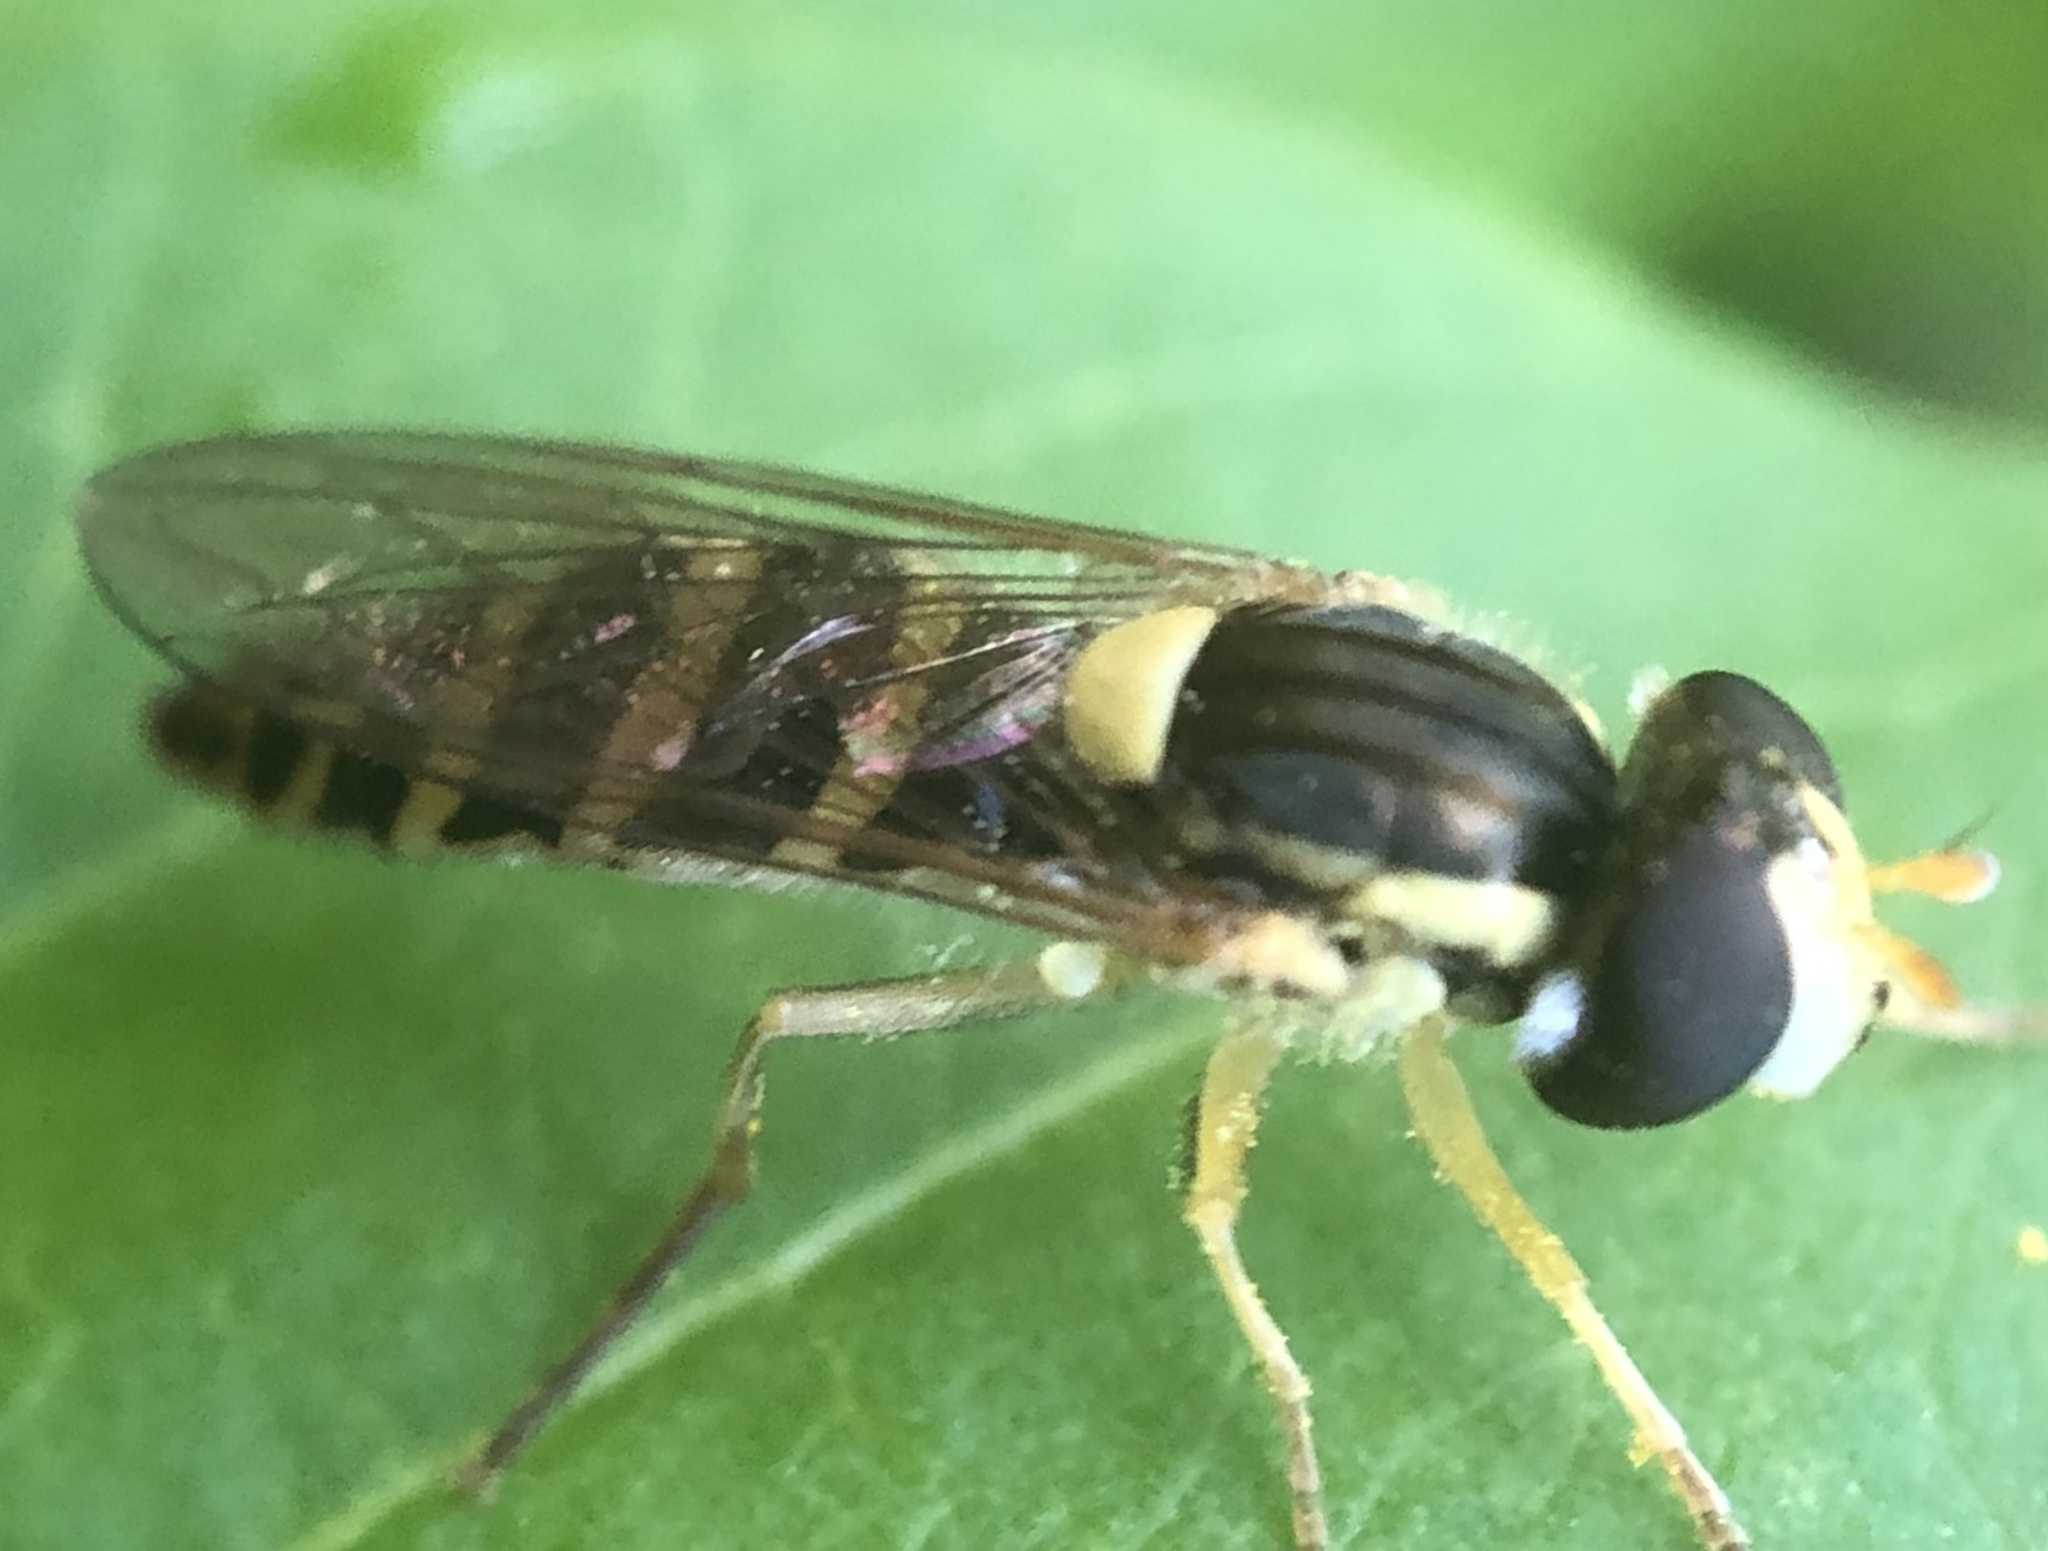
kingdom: Animalia
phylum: Arthropoda
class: Insecta
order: Diptera
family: Syrphidae
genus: Sphaerophoria
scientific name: Sphaerophoria
